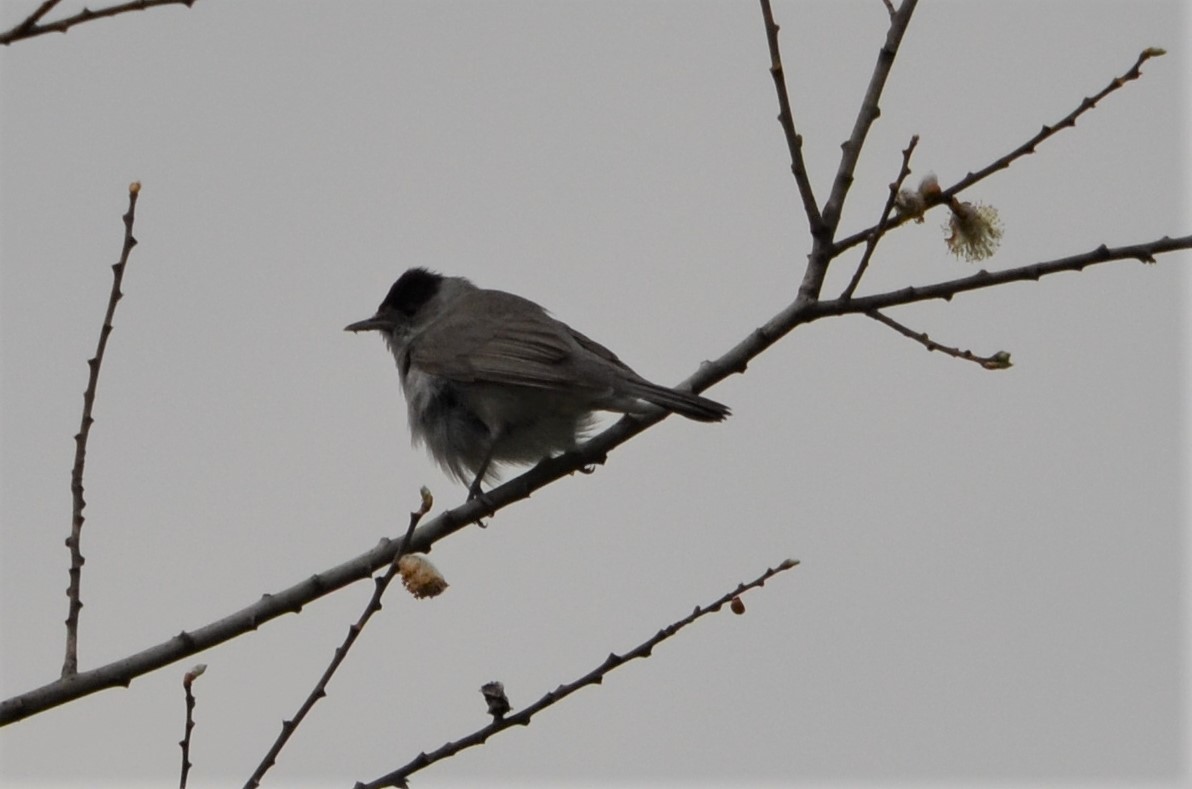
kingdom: Animalia
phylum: Chordata
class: Aves
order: Passeriformes
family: Sylviidae
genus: Sylvia
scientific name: Sylvia atricapilla
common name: Eurasian blackcap
